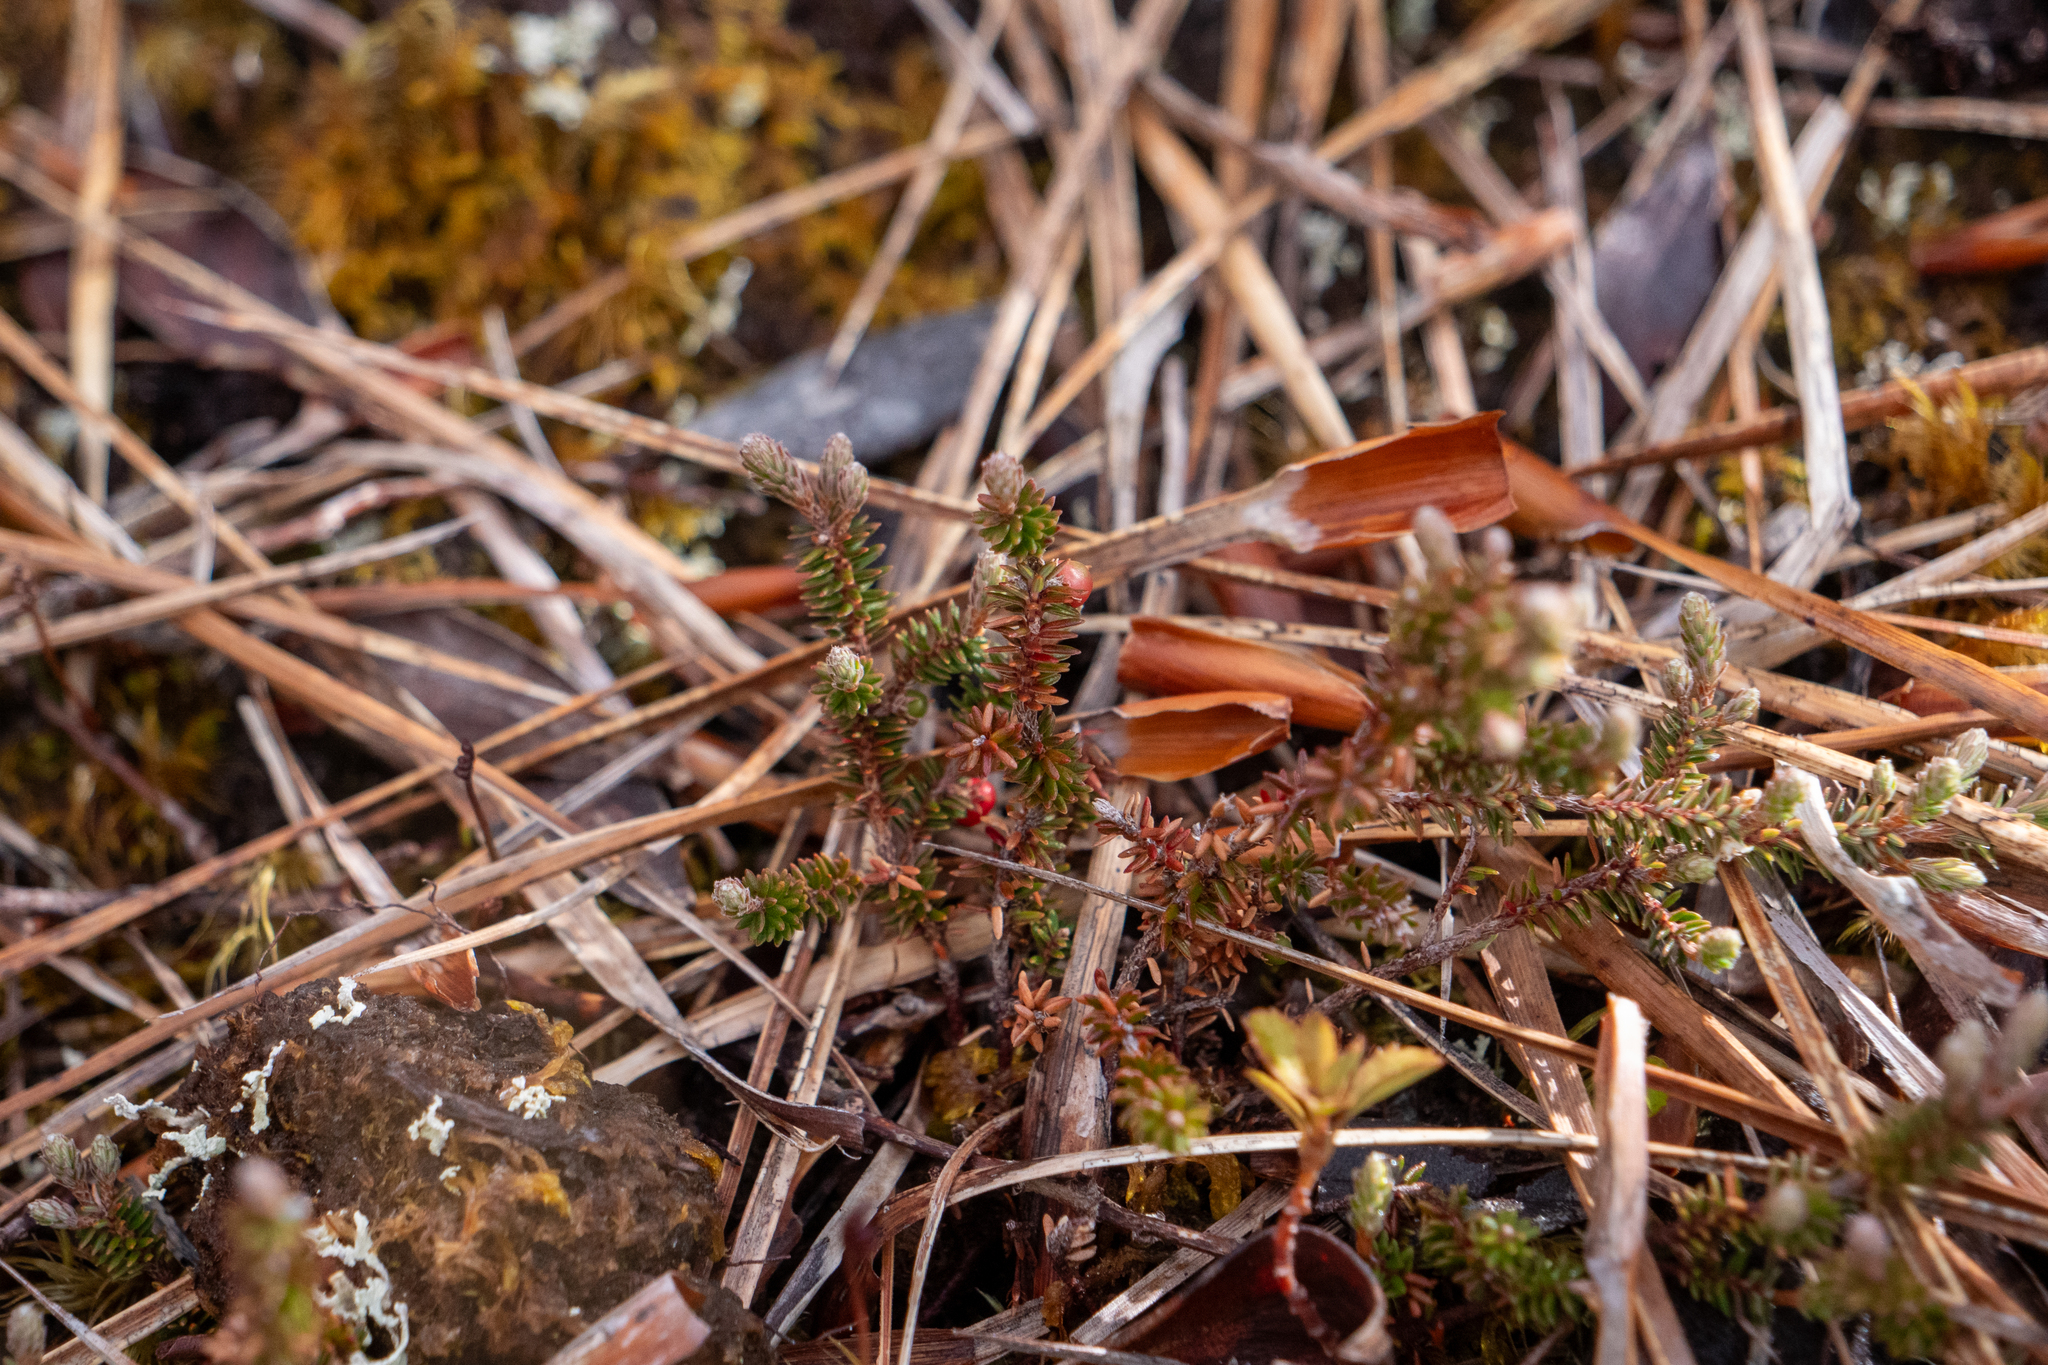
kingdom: Plantae
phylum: Tracheophyta
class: Magnoliopsida
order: Ericales
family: Ericaceae
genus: Androstoma
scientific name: Androstoma empetrifolia
